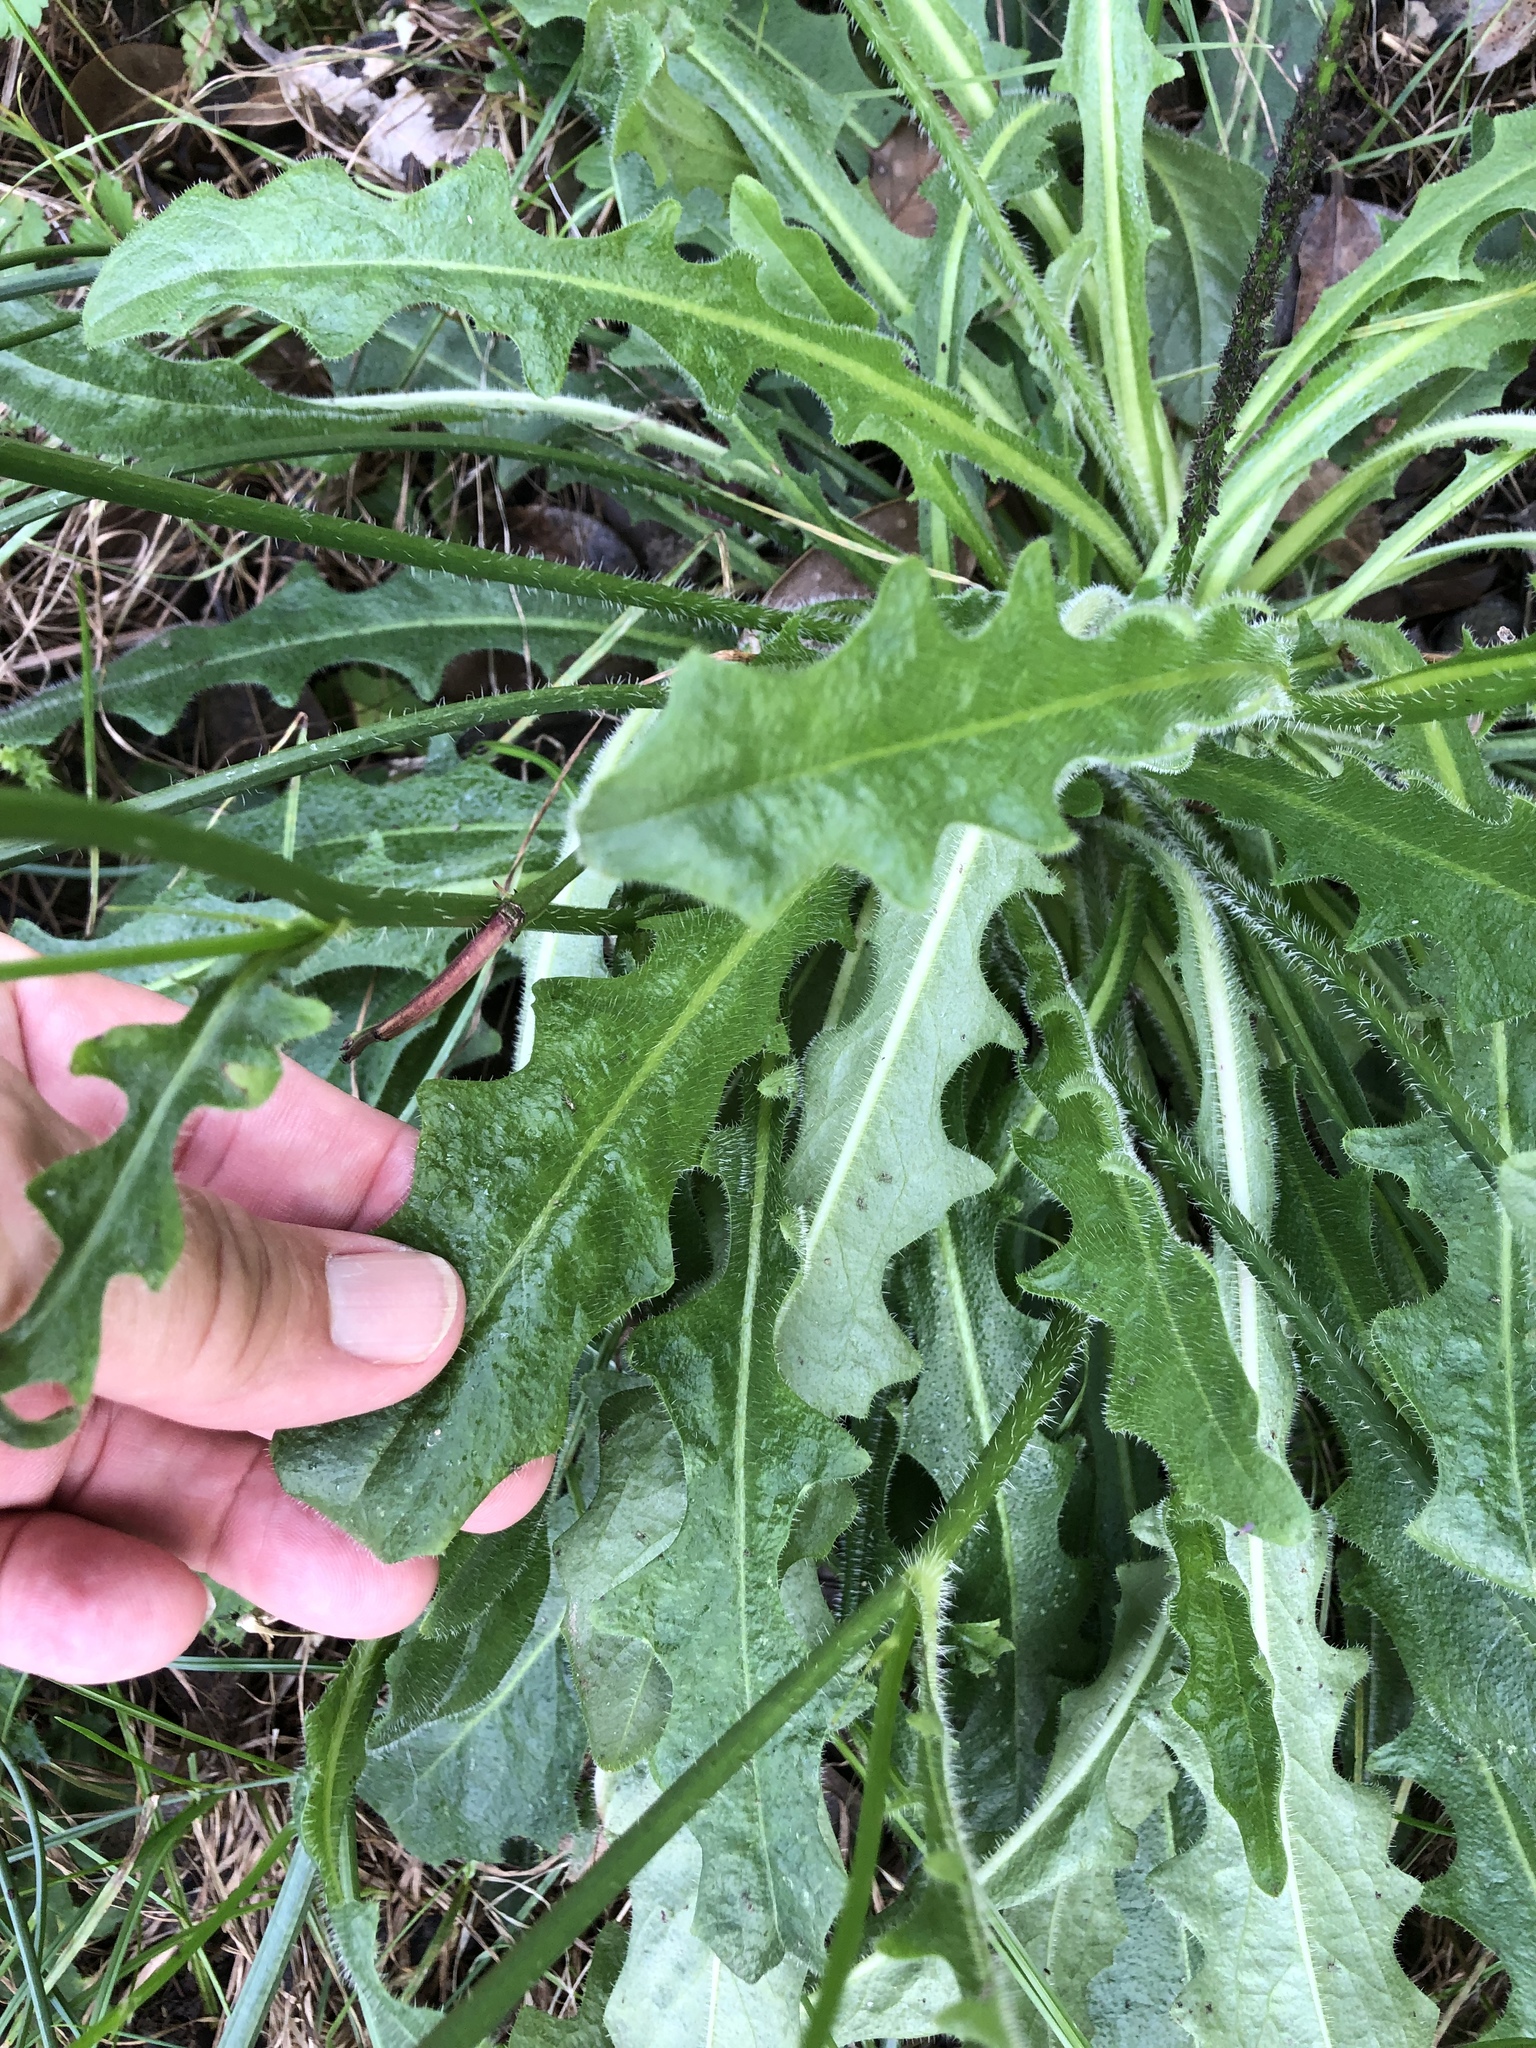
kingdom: Plantae
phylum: Tracheophyta
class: Magnoliopsida
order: Asterales
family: Asteraceae
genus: Hypochaeris
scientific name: Hypochaeris radicata
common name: Flatweed
